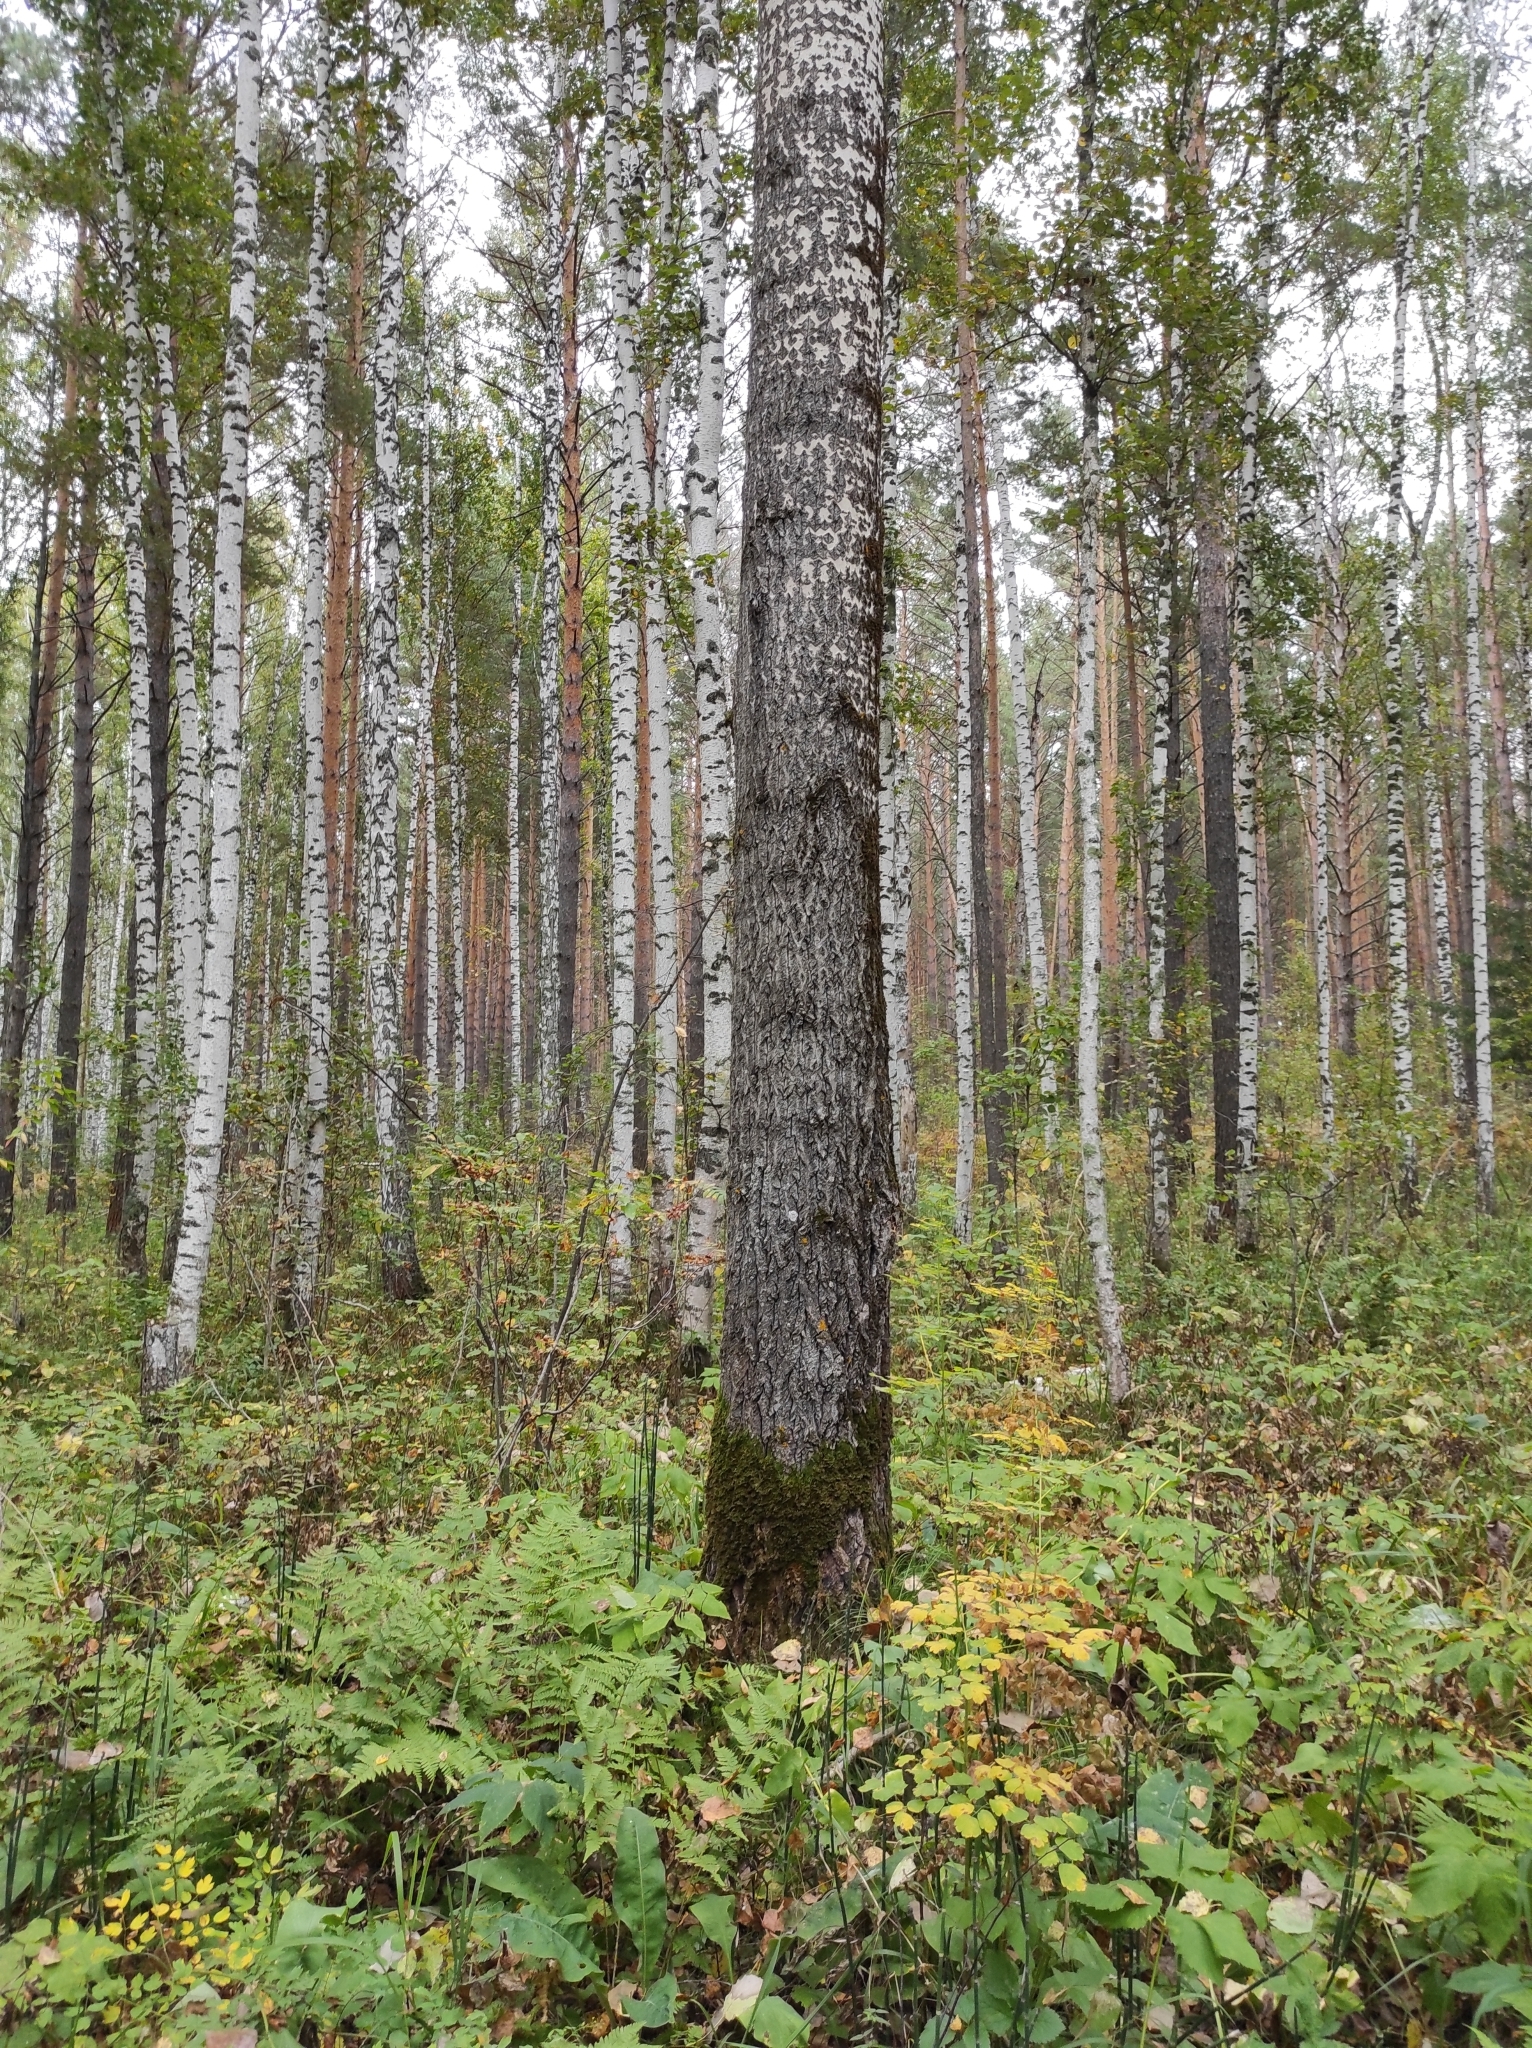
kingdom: Plantae
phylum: Tracheophyta
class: Pinopsida
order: Pinales
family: Pinaceae
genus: Pinus
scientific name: Pinus sylvestris
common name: Scots pine
